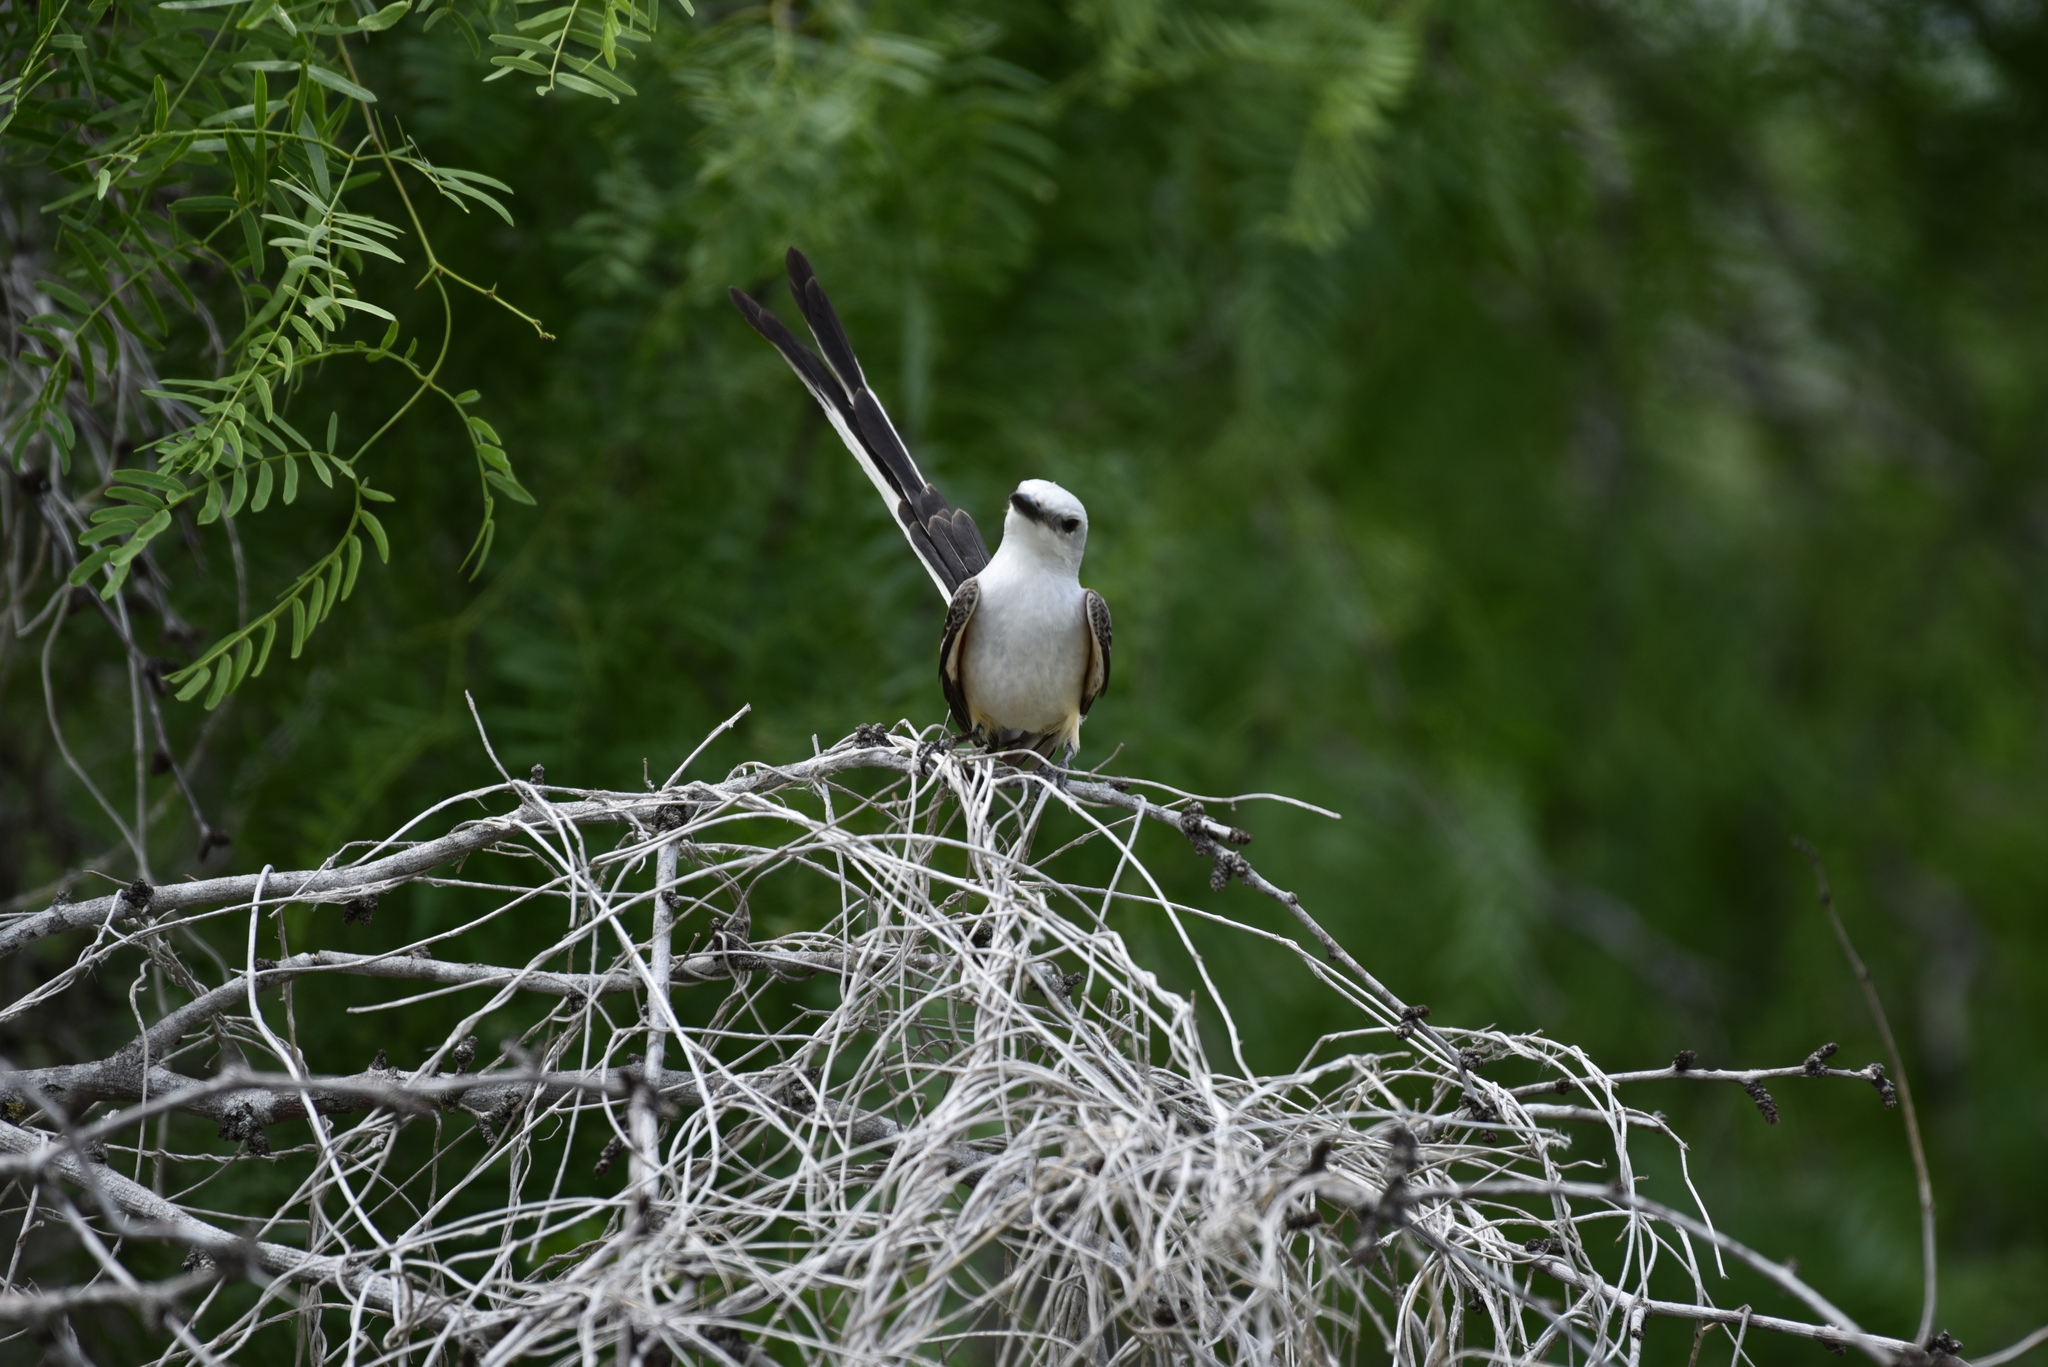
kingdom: Animalia
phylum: Chordata
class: Aves
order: Passeriformes
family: Tyrannidae
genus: Tyrannus
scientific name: Tyrannus forficatus
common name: Scissor-tailed flycatcher
